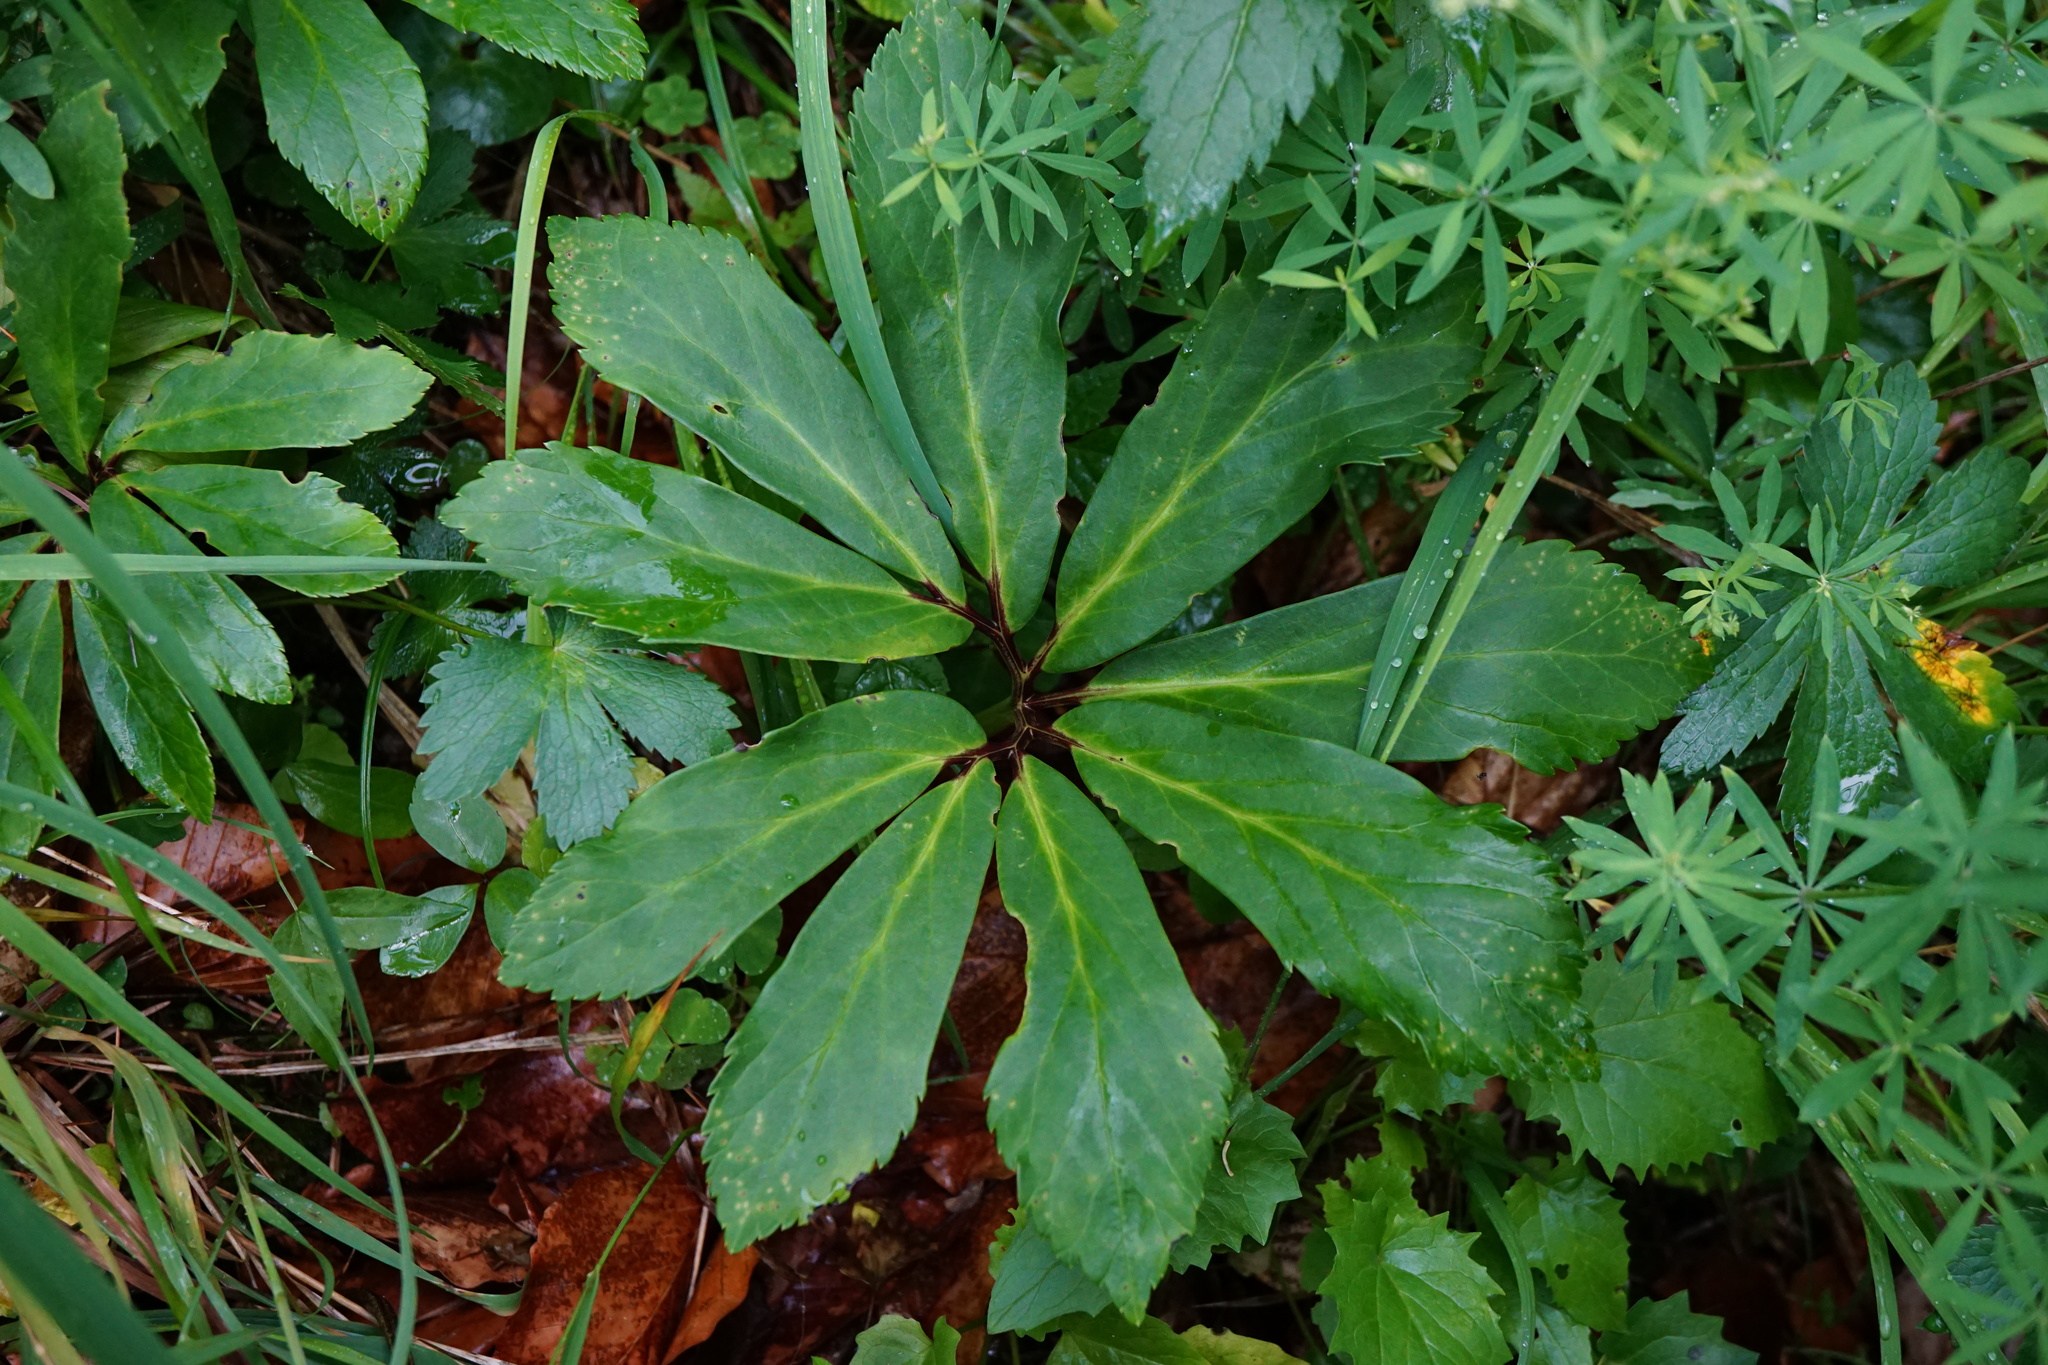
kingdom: Plantae
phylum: Tracheophyta
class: Magnoliopsida
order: Ranunculales
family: Ranunculaceae
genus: Helleborus
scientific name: Helleborus niger
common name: Black hellebore
